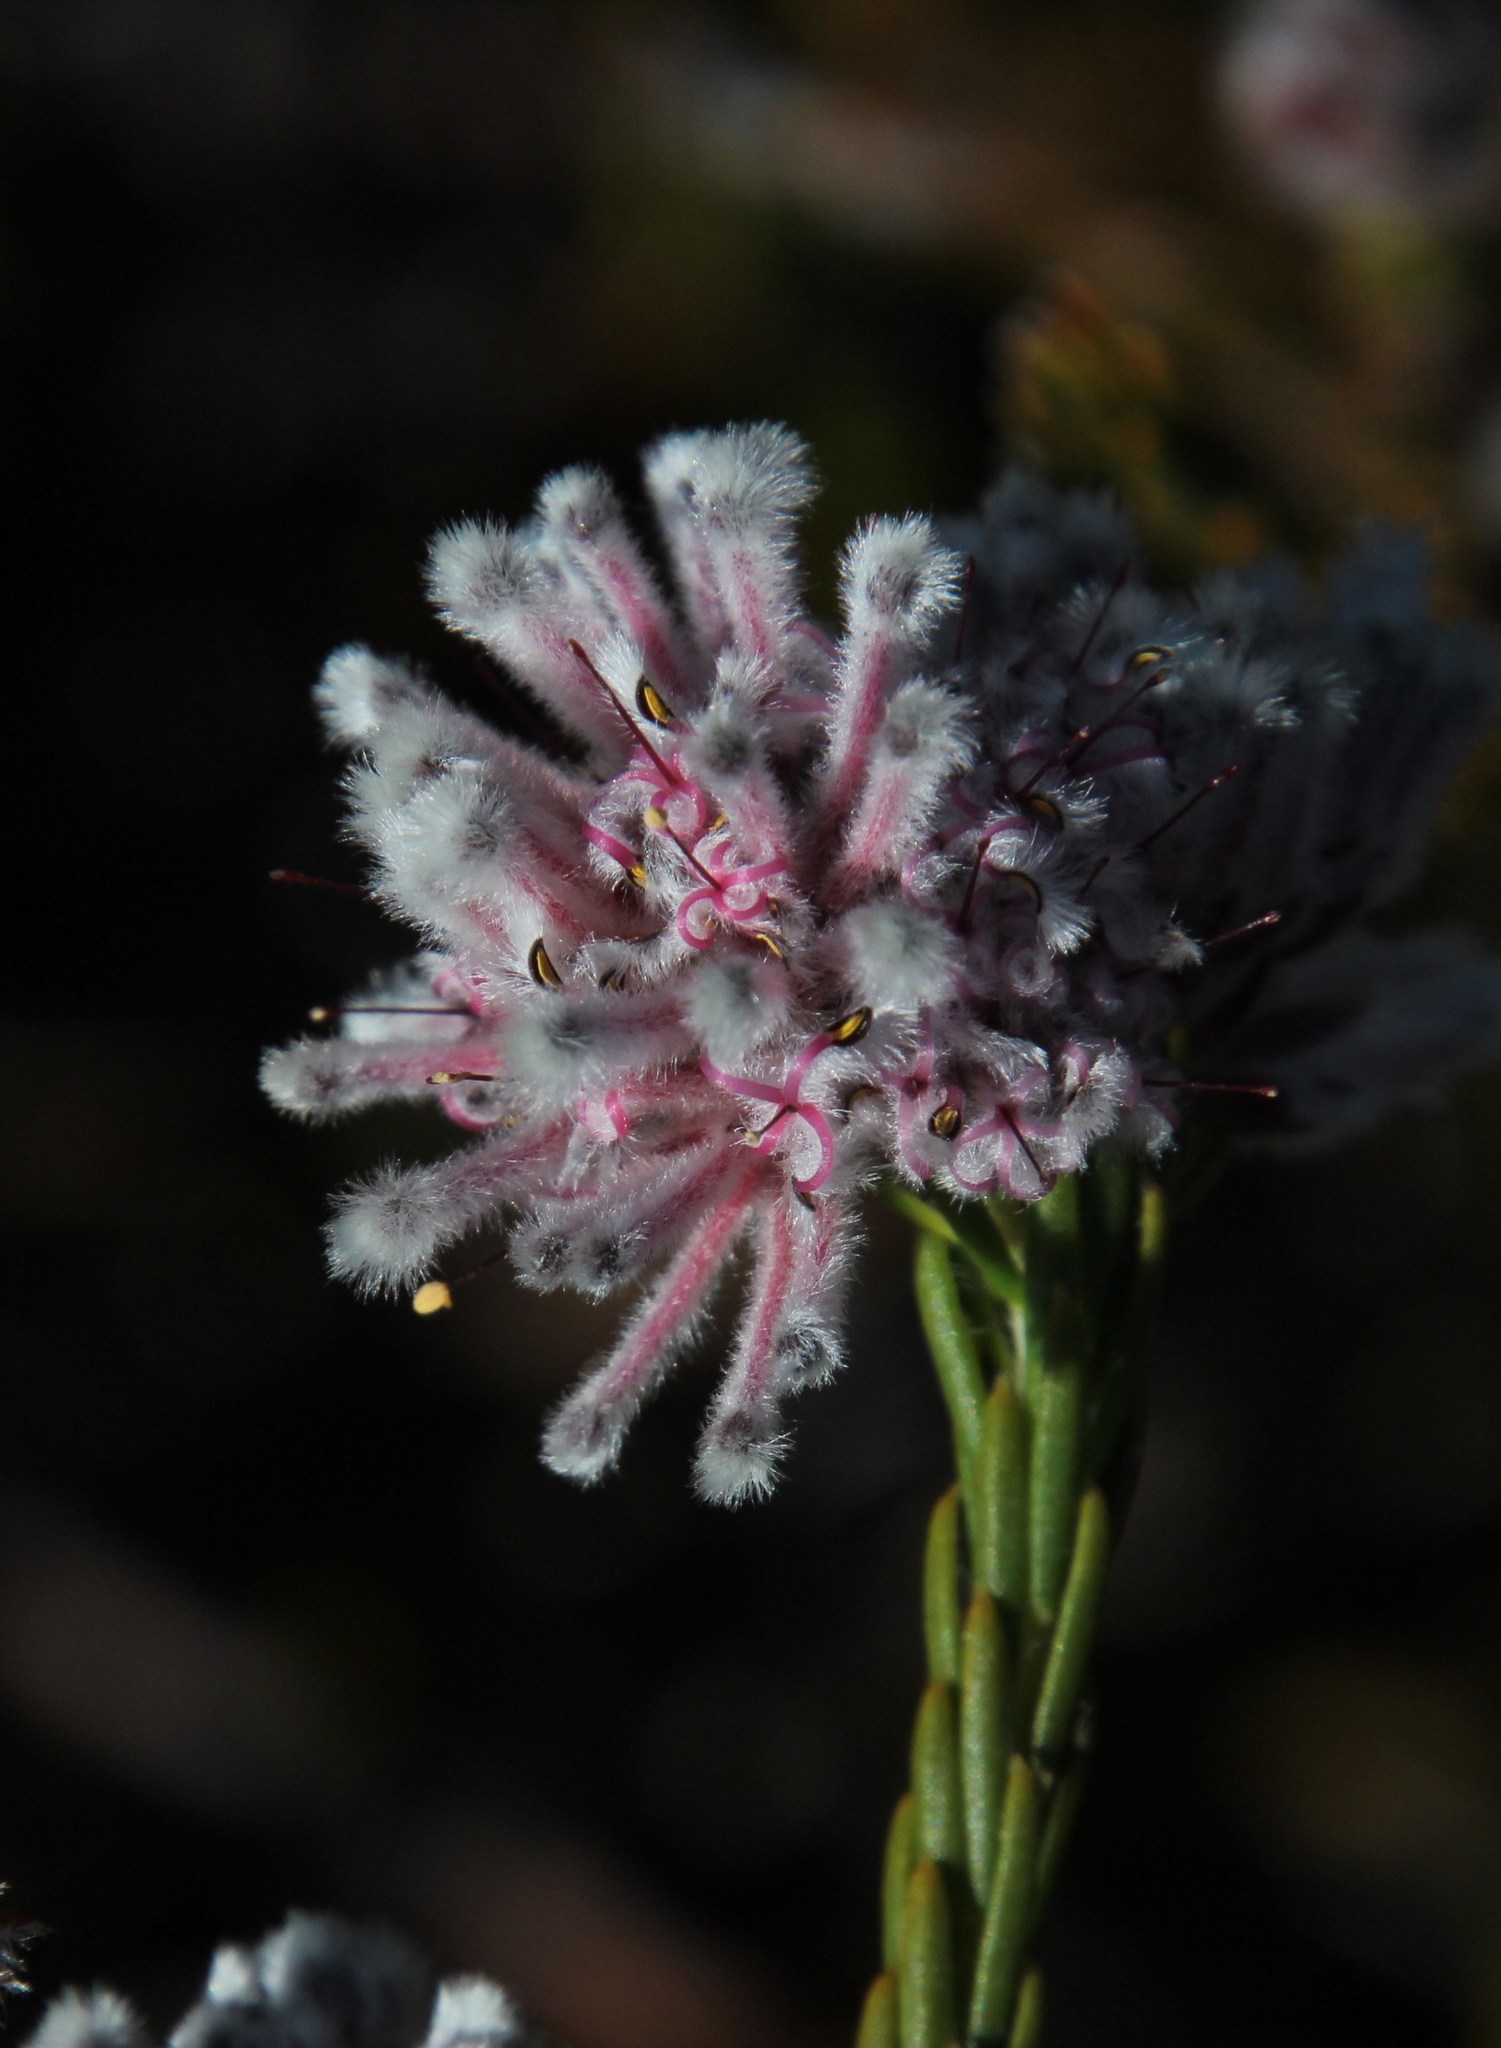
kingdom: Plantae
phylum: Tracheophyta
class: Magnoliopsida
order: Proteales
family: Proteaceae
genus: Sorocephalus
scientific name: Sorocephalus lanatus
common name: Common clusterhead
